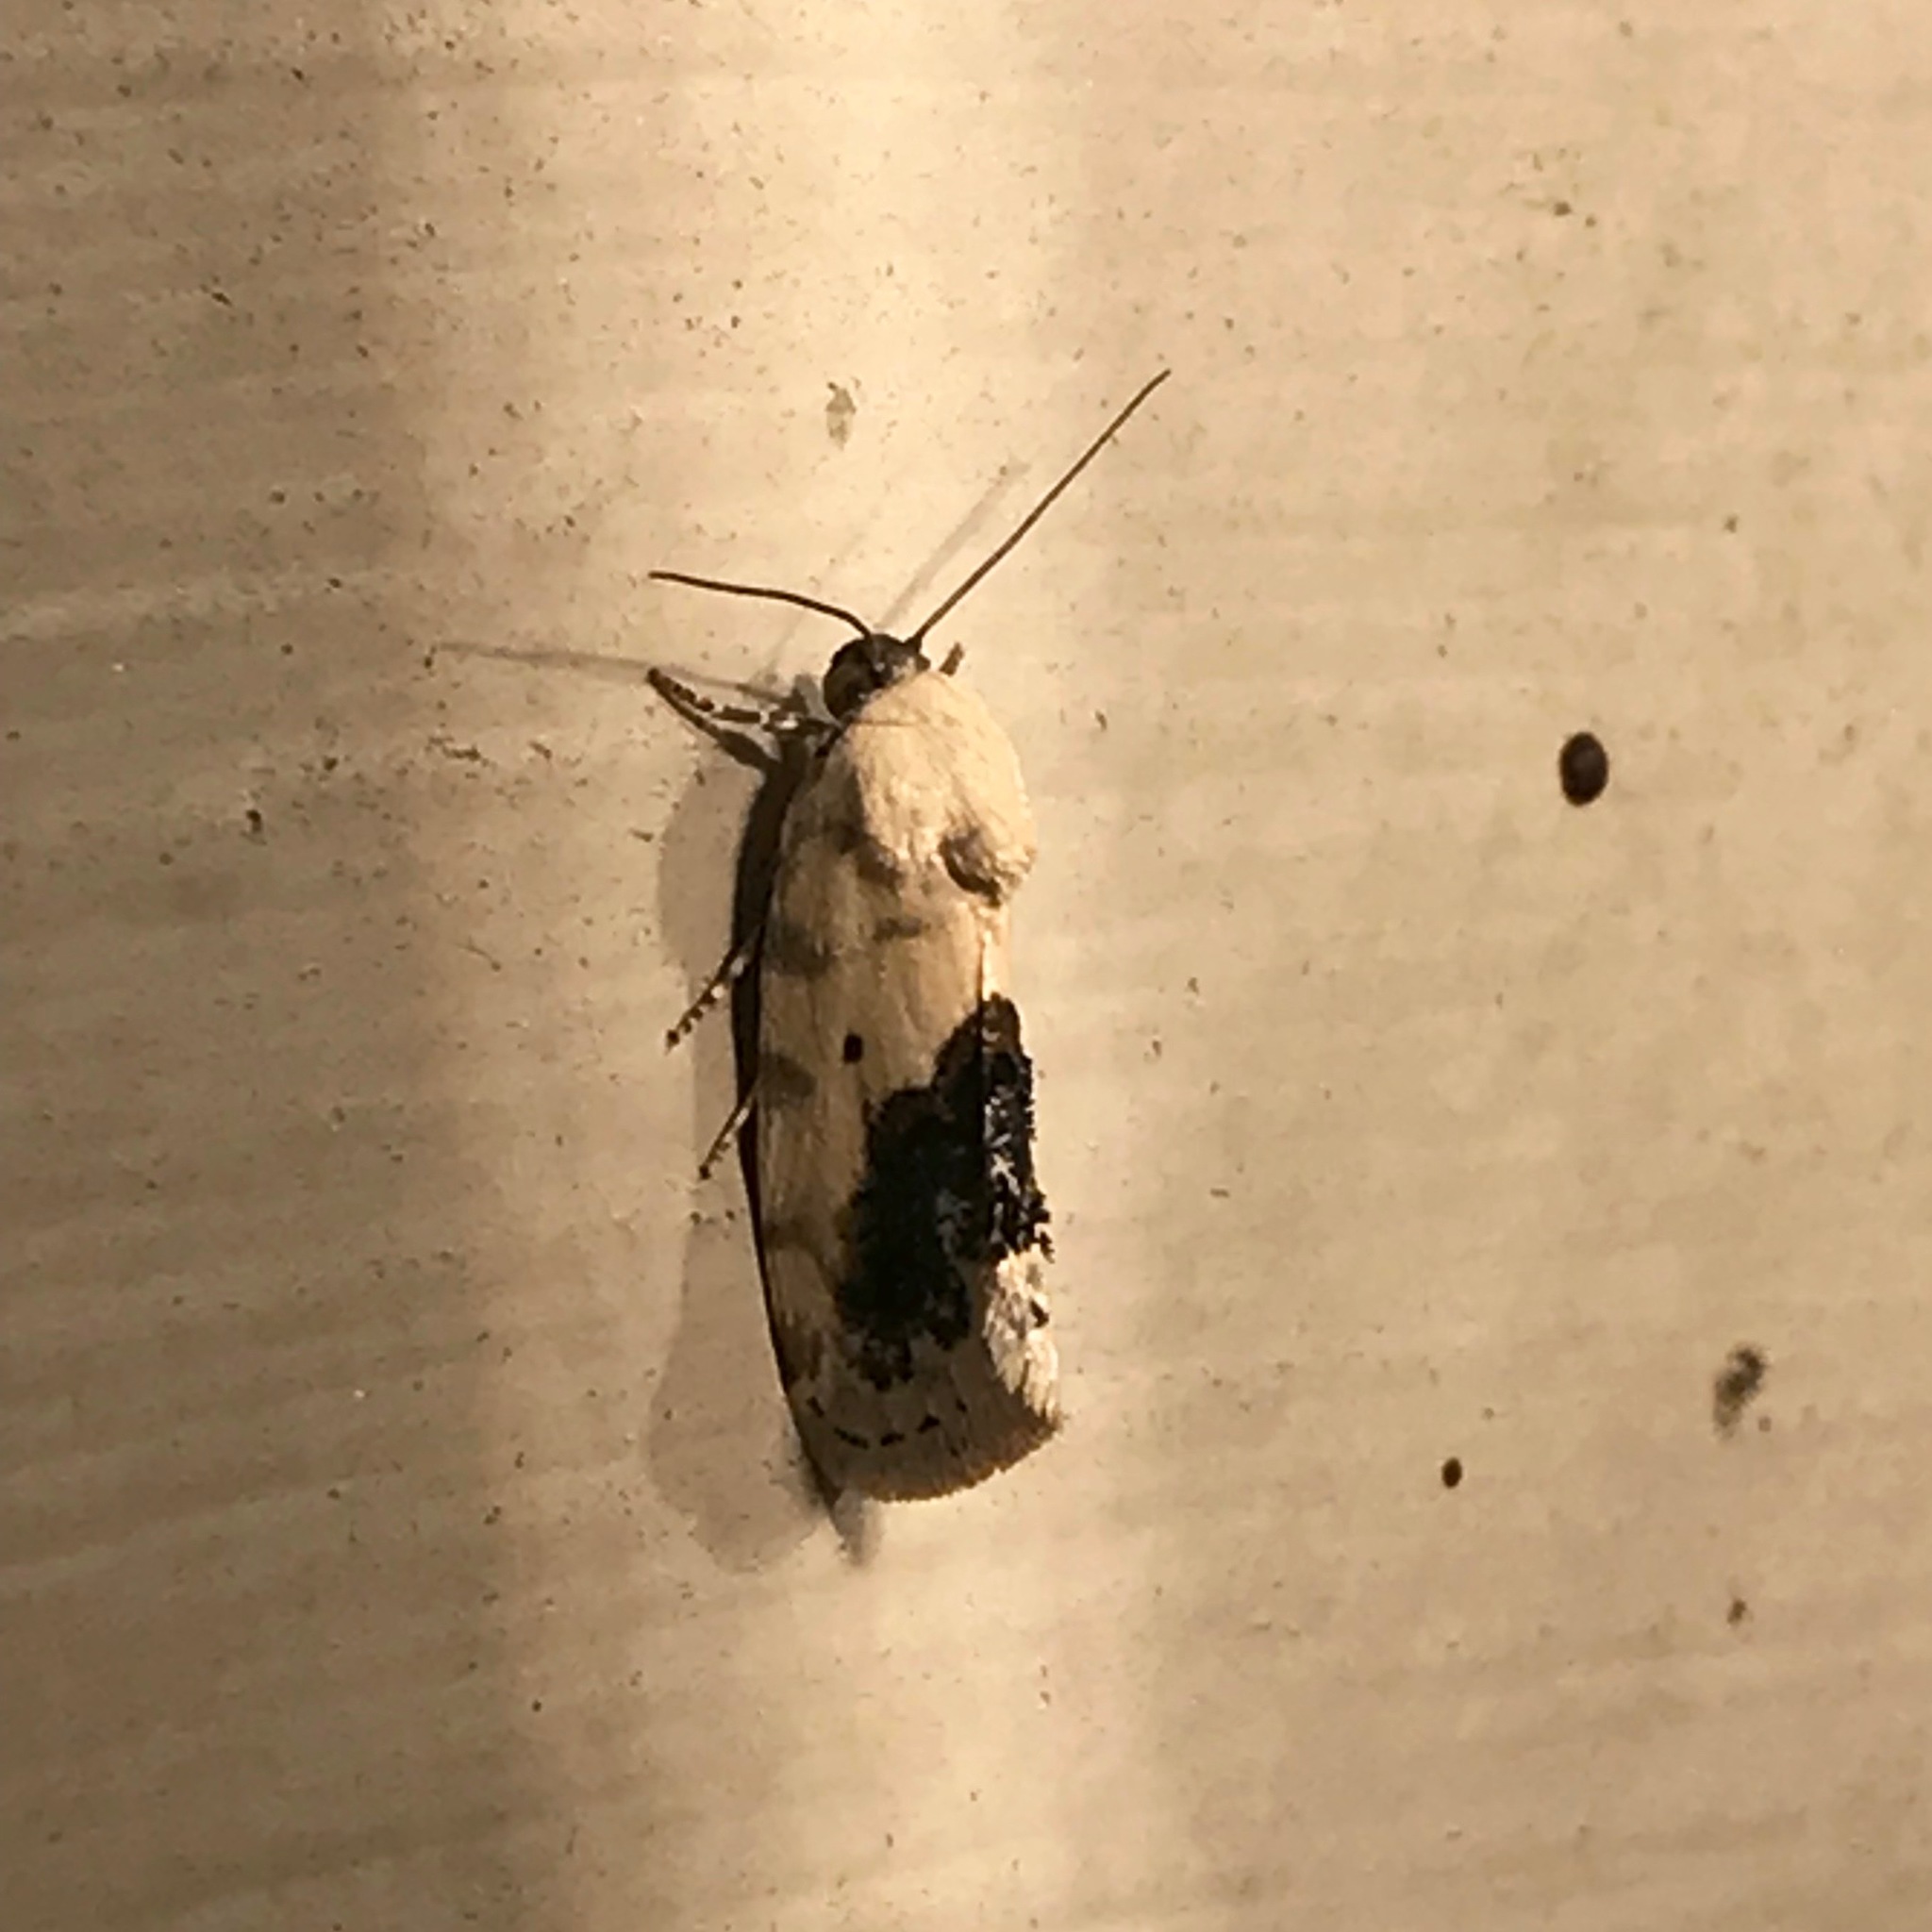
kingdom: Animalia
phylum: Arthropoda
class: Insecta
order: Lepidoptera
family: Noctuidae
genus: Acontia
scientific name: Acontia erastrioides
